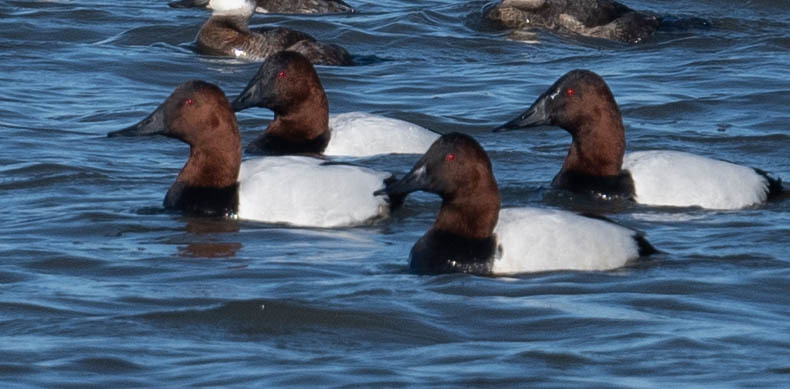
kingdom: Animalia
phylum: Chordata
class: Aves
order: Anseriformes
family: Anatidae
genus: Aythya
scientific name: Aythya valisineria
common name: Canvasback
